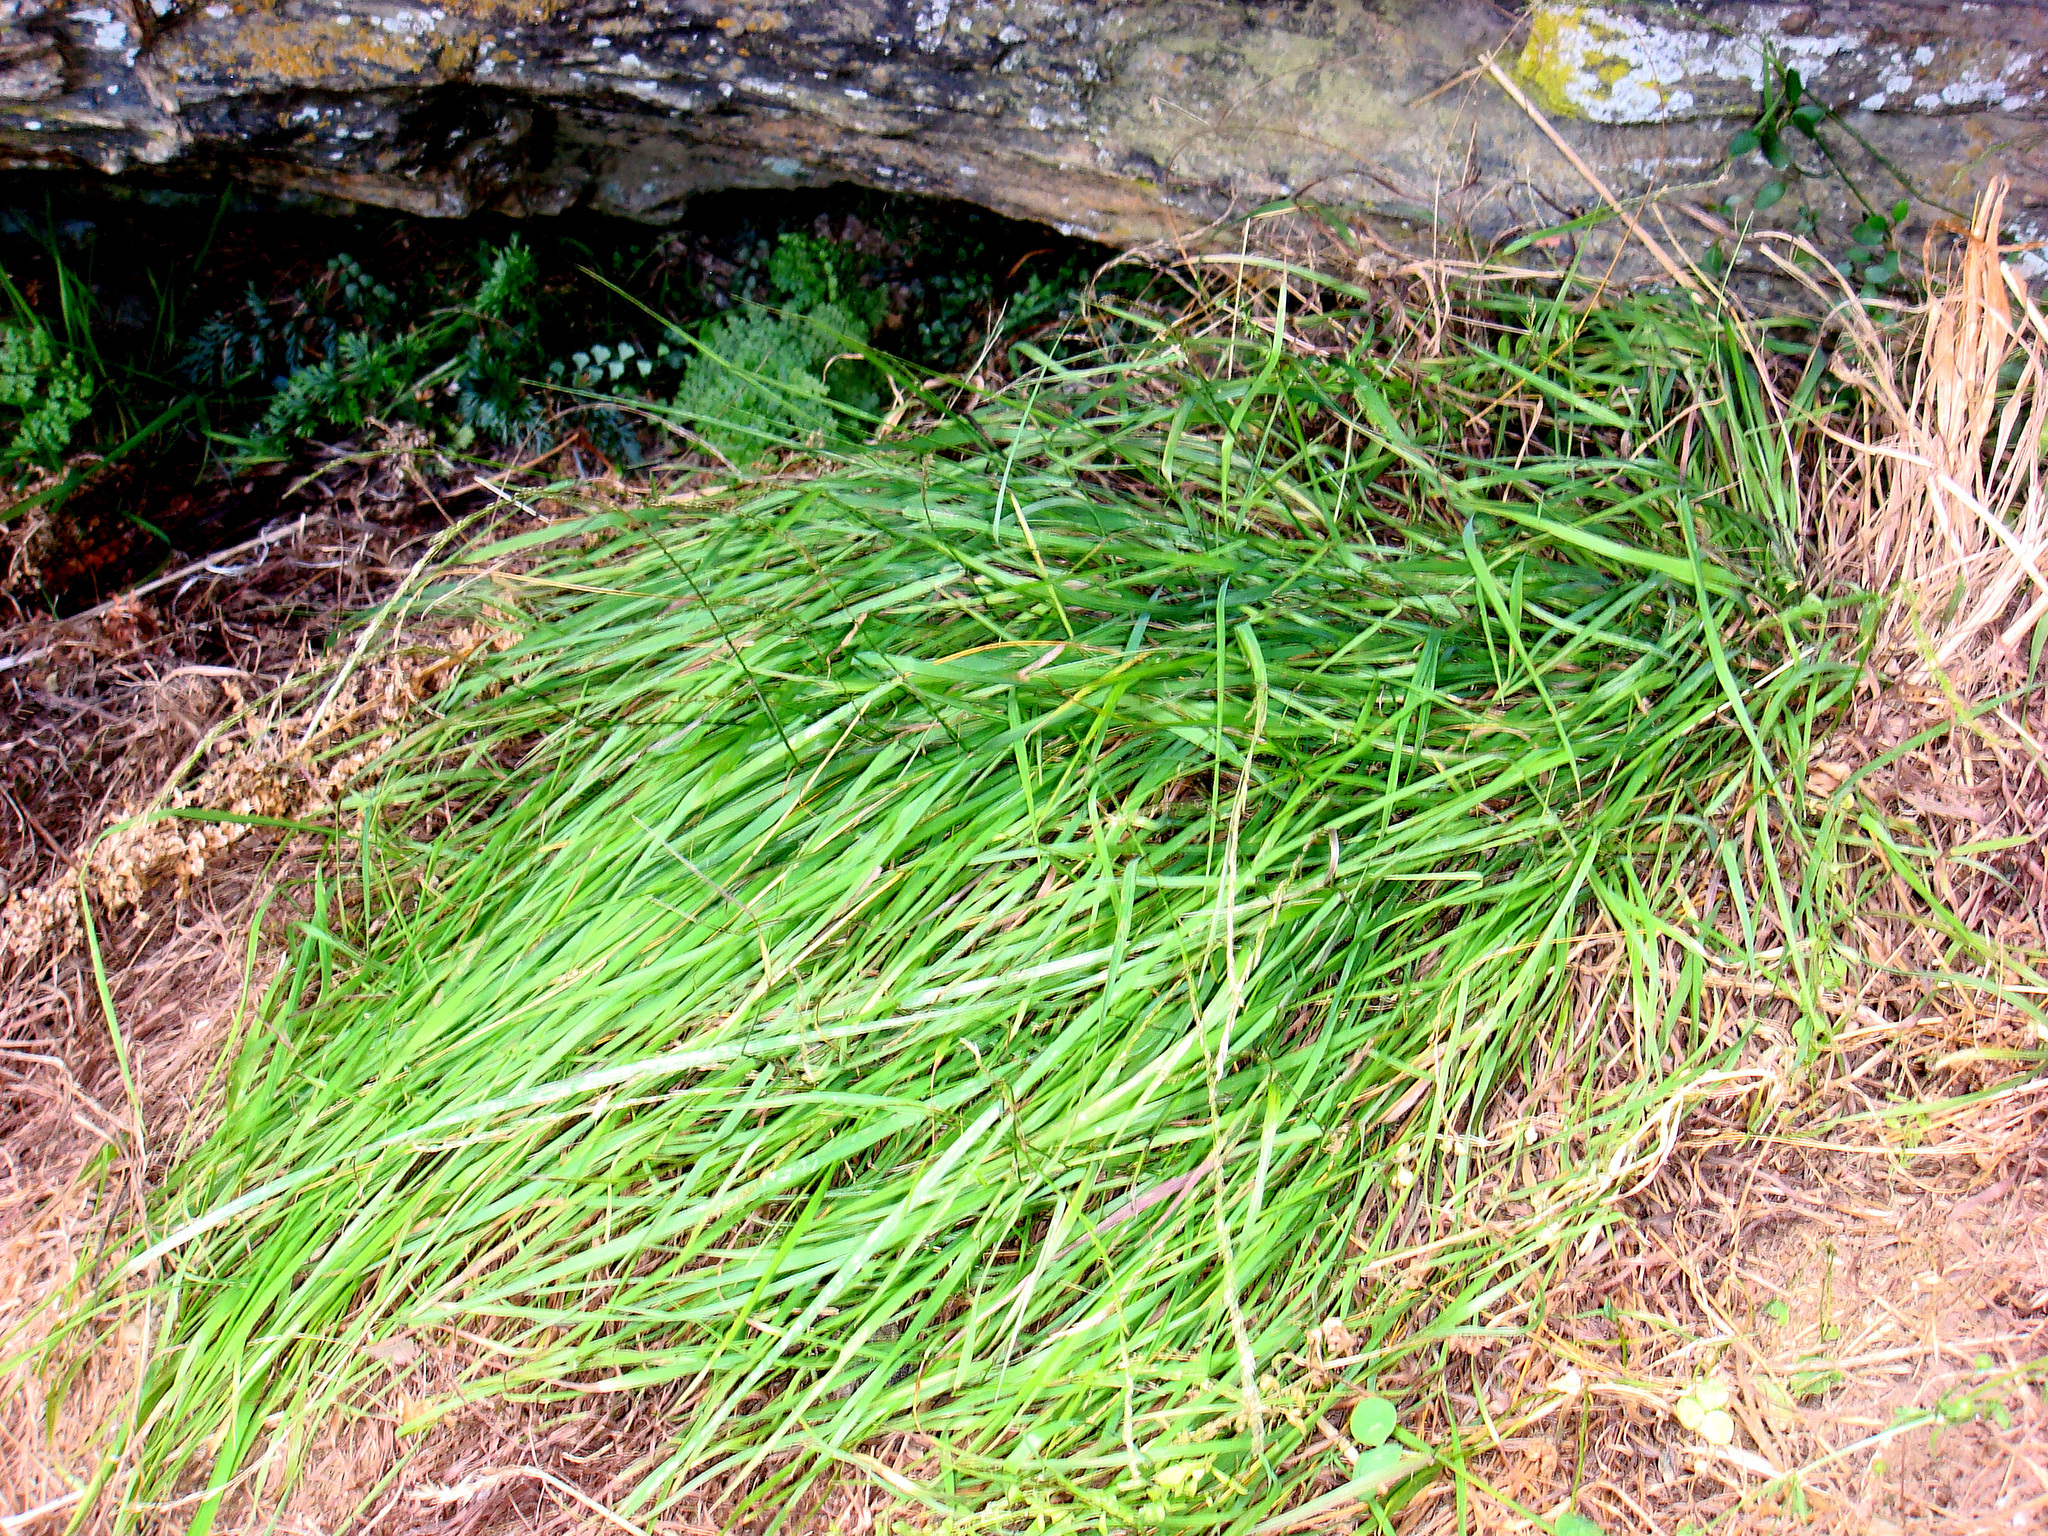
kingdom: Plantae
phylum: Tracheophyta
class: Liliopsida
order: Poales
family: Poaceae
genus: Simplicia
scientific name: Simplicia laxa
